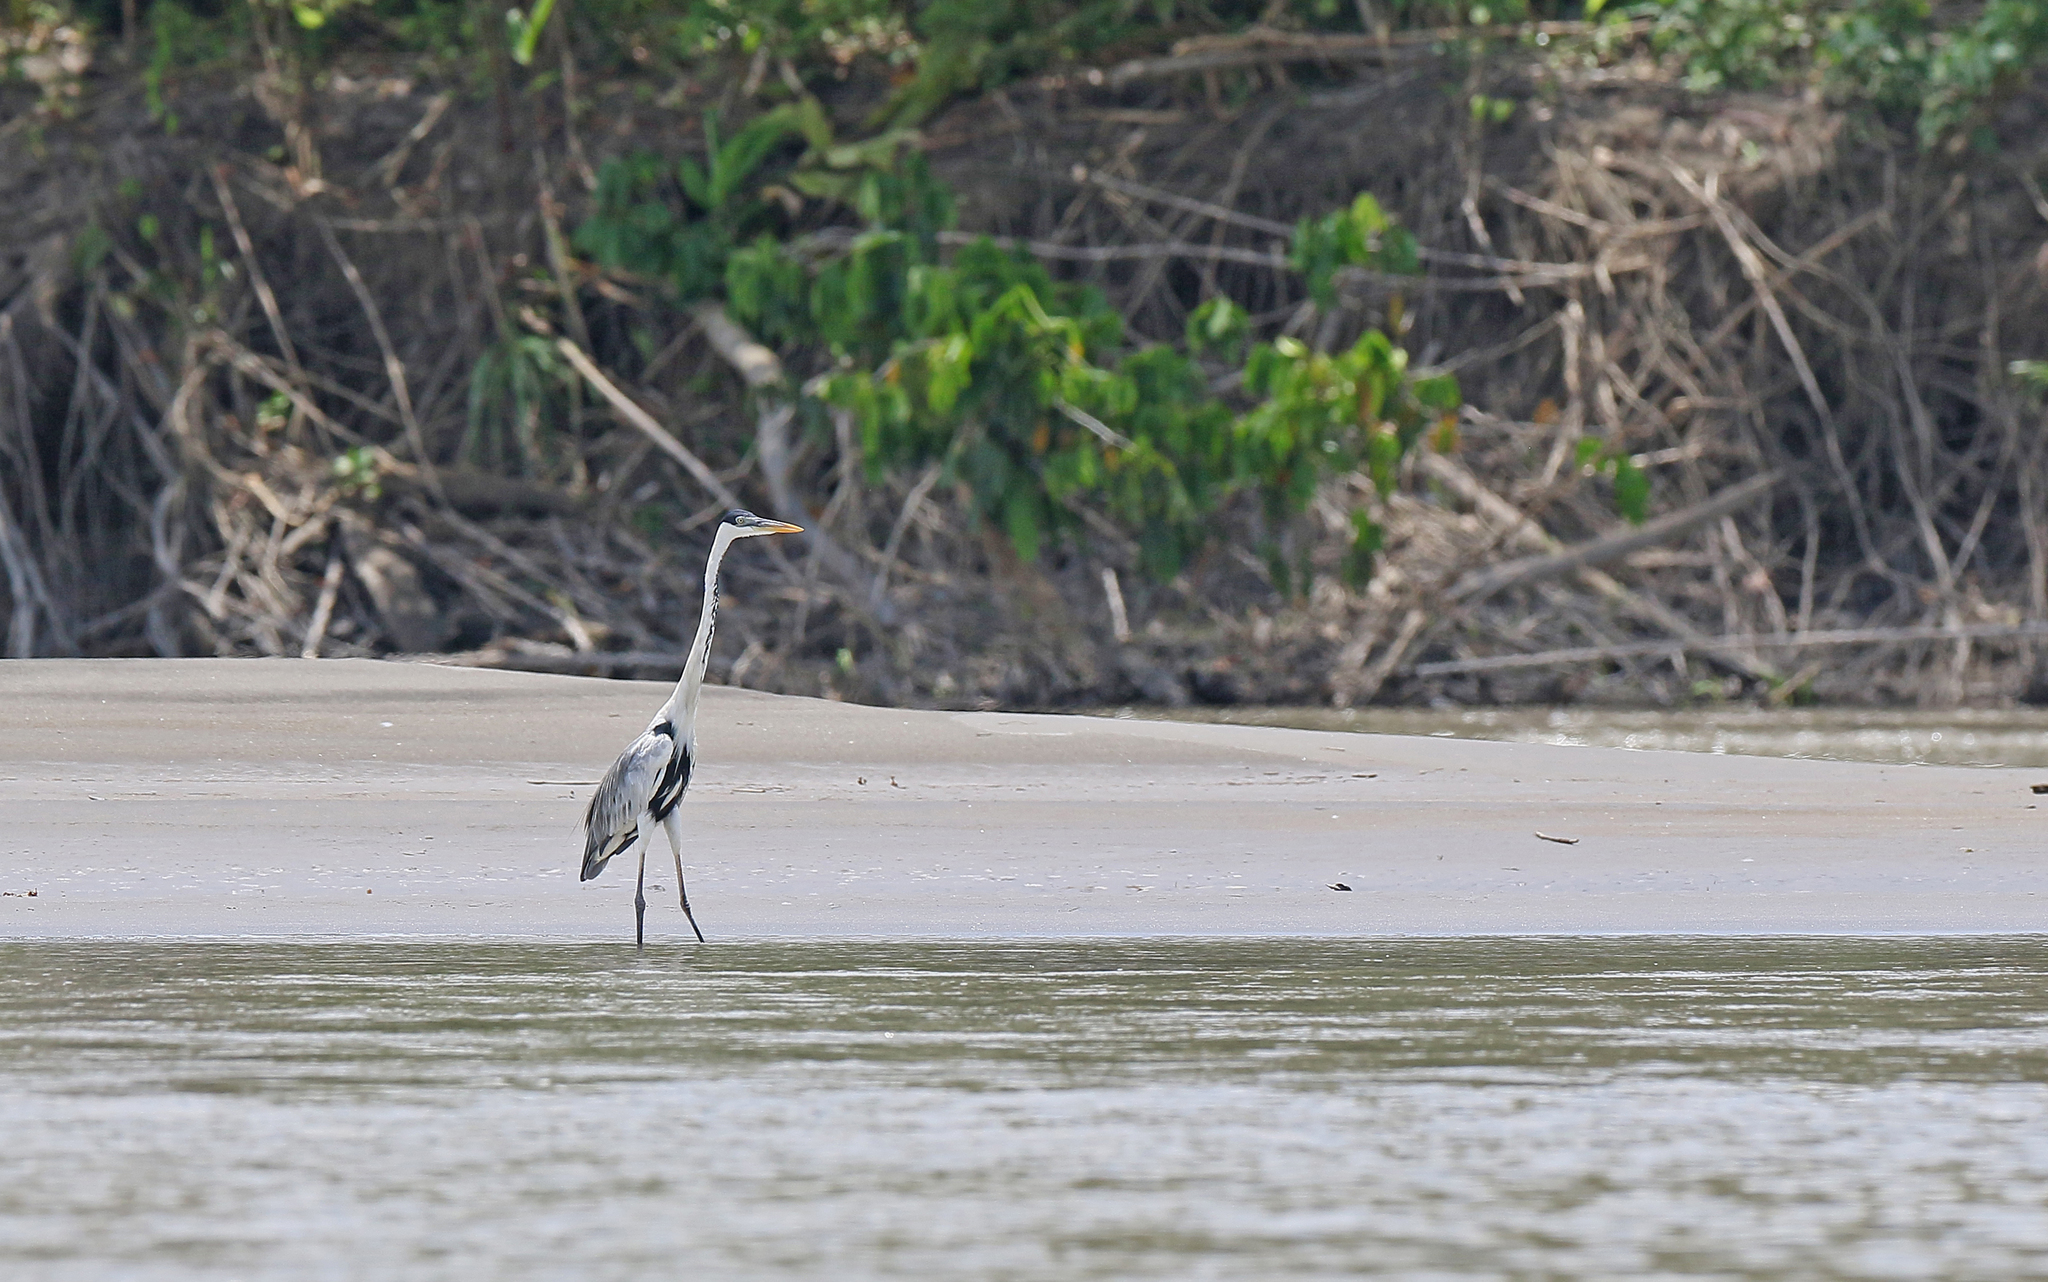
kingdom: Animalia
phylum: Chordata
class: Aves
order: Pelecaniformes
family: Ardeidae
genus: Ardea
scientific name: Ardea cocoi
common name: Cocoi heron
